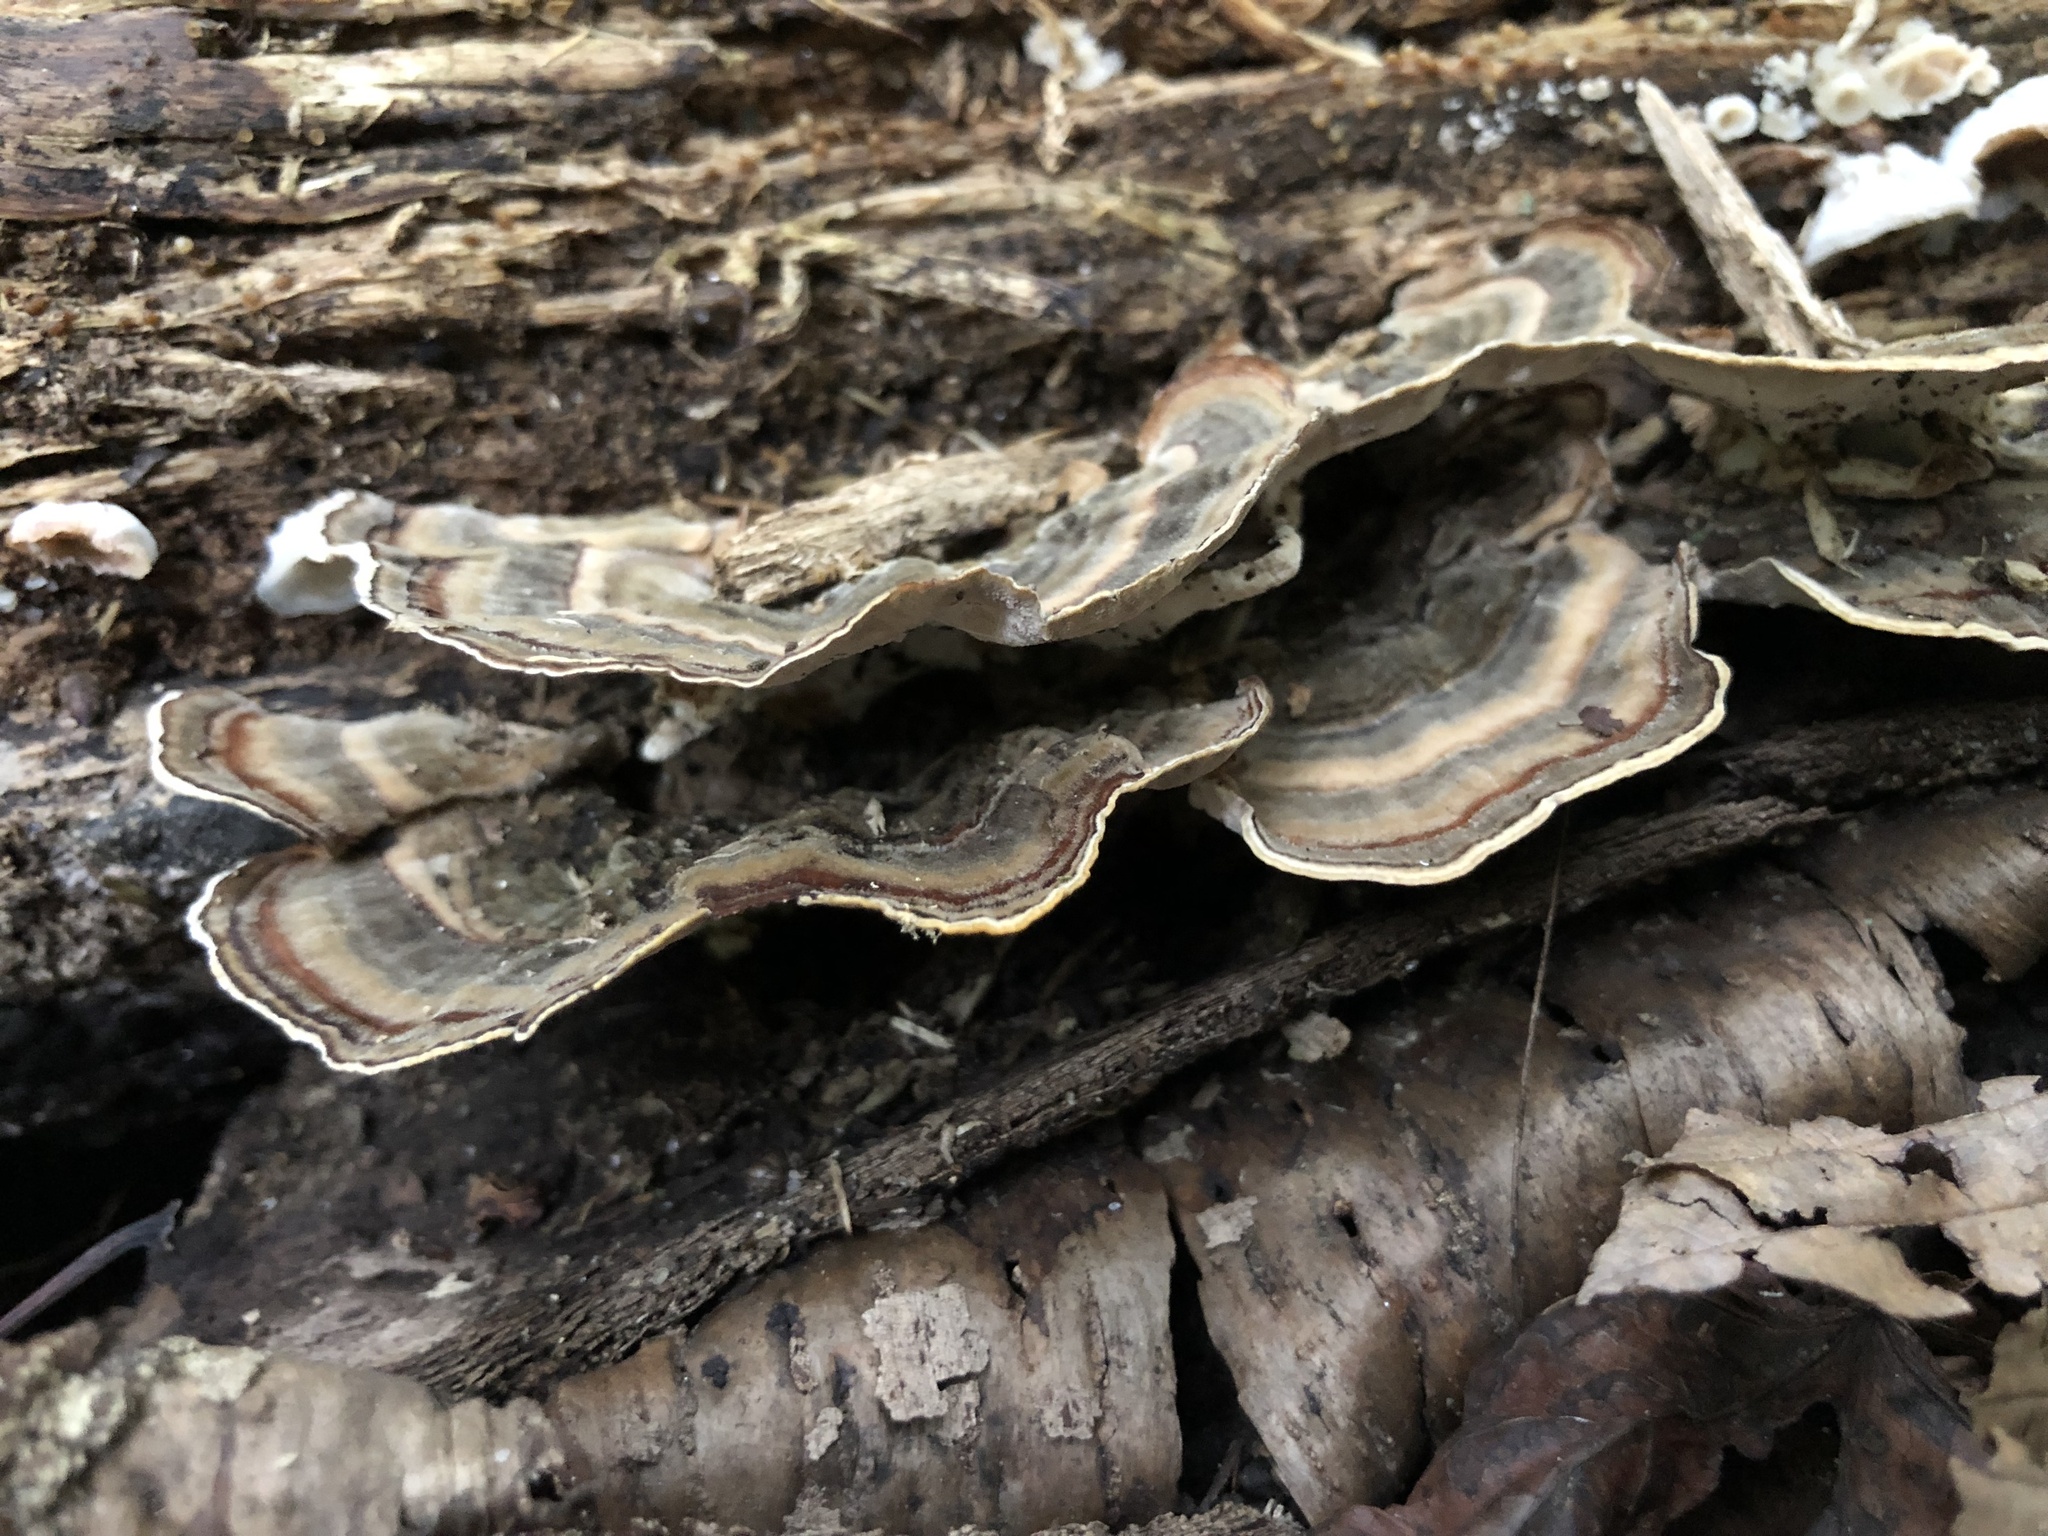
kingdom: Fungi
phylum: Basidiomycota
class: Agaricomycetes
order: Polyporales
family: Polyporaceae
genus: Trametes
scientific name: Trametes versicolor
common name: Turkeytail
